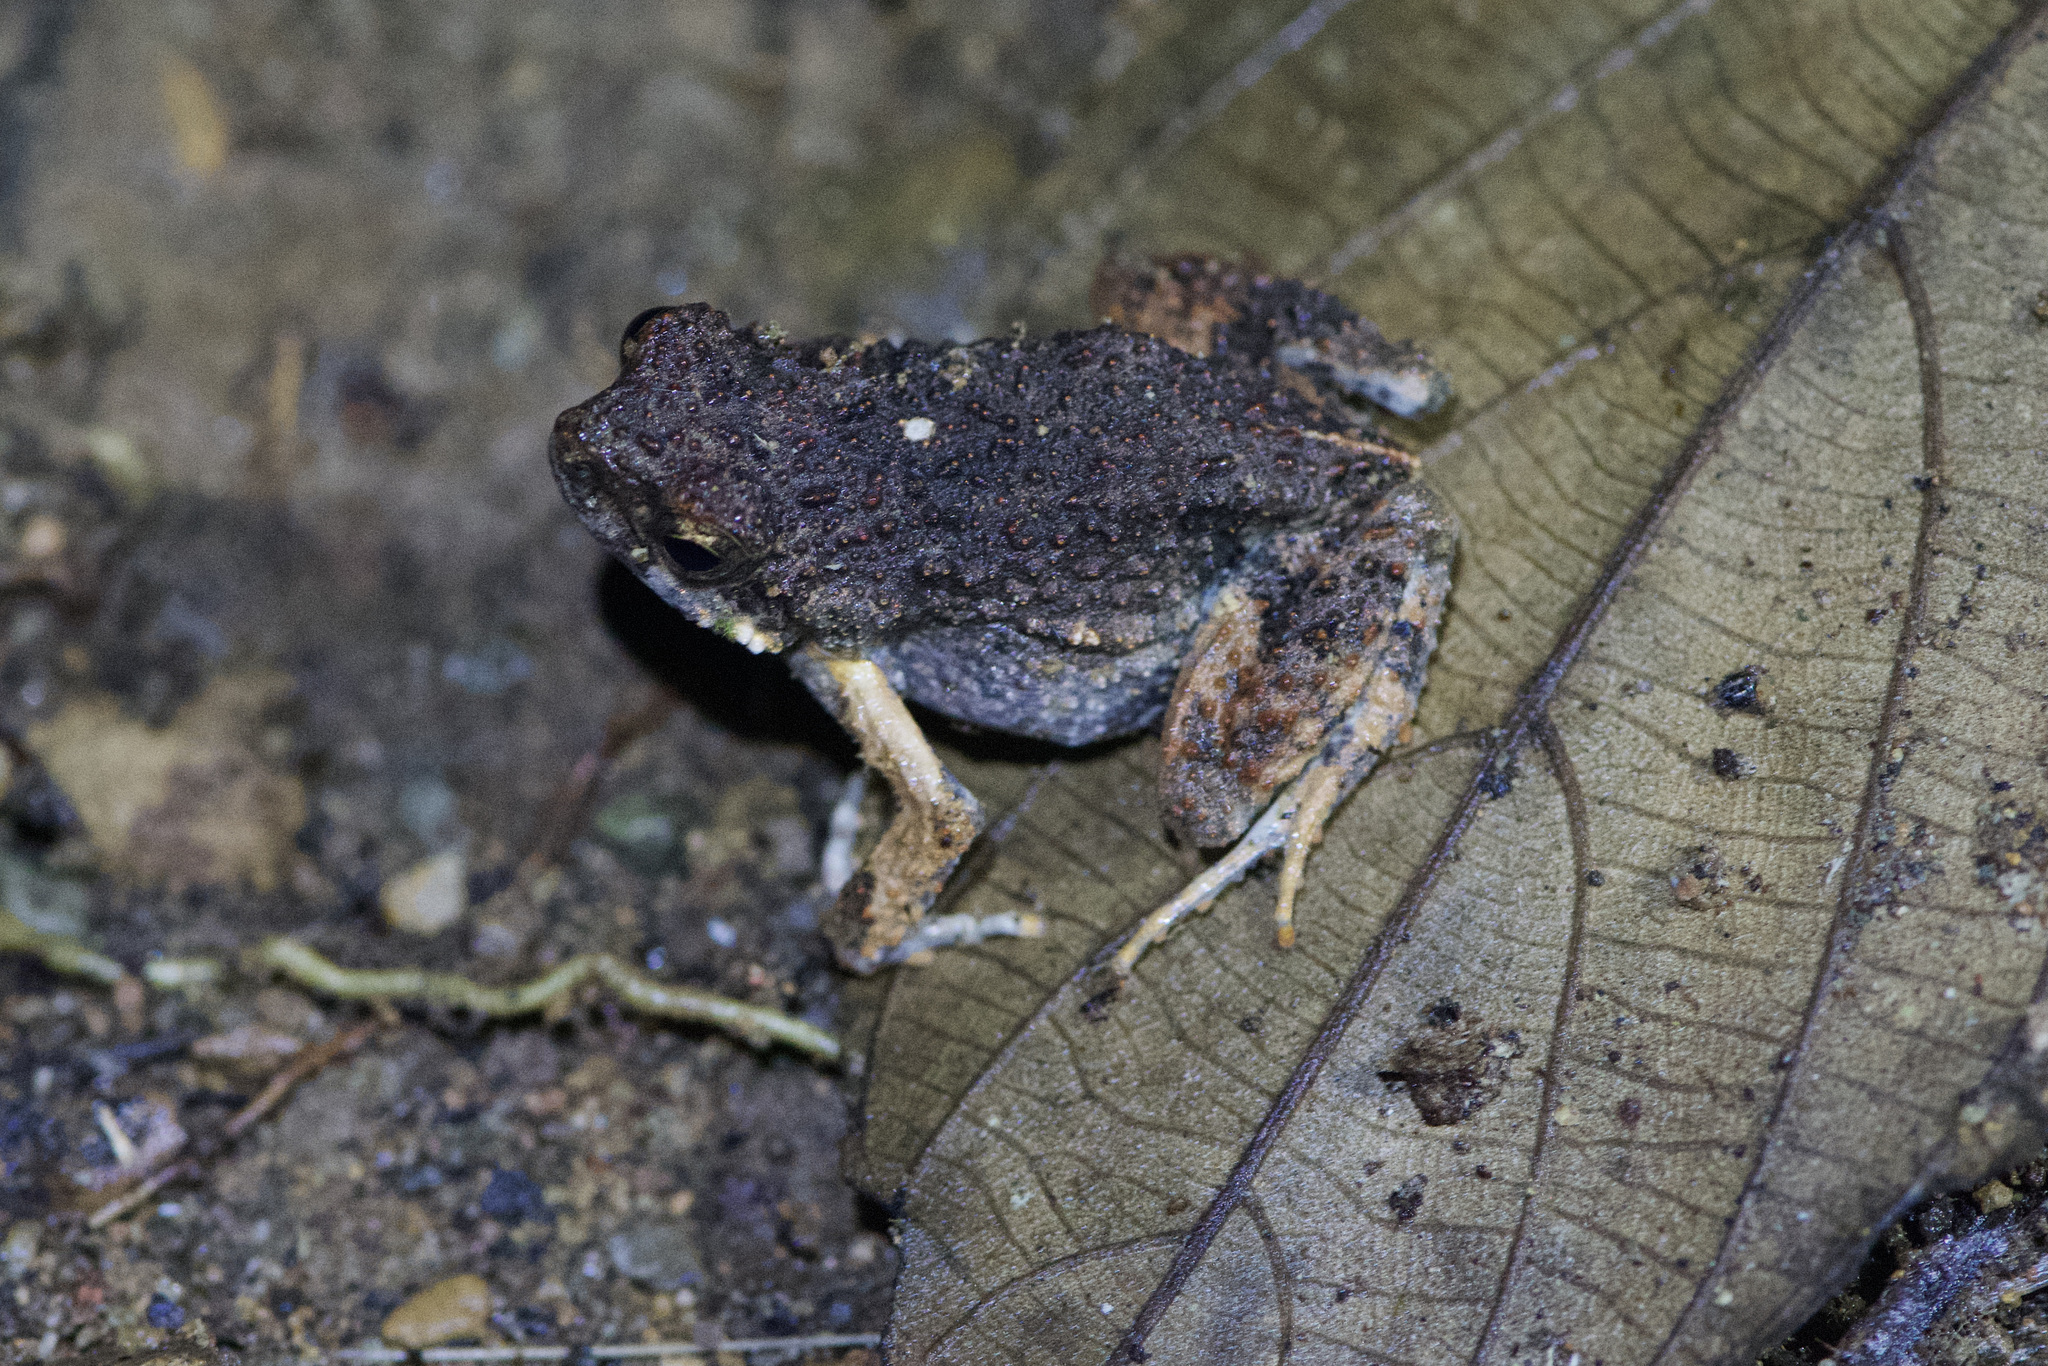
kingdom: Animalia
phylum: Chordata
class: Amphibia
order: Anura
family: Leptodactylidae
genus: Engystomops
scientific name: Engystomops pustulosus
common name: Tungara frog
